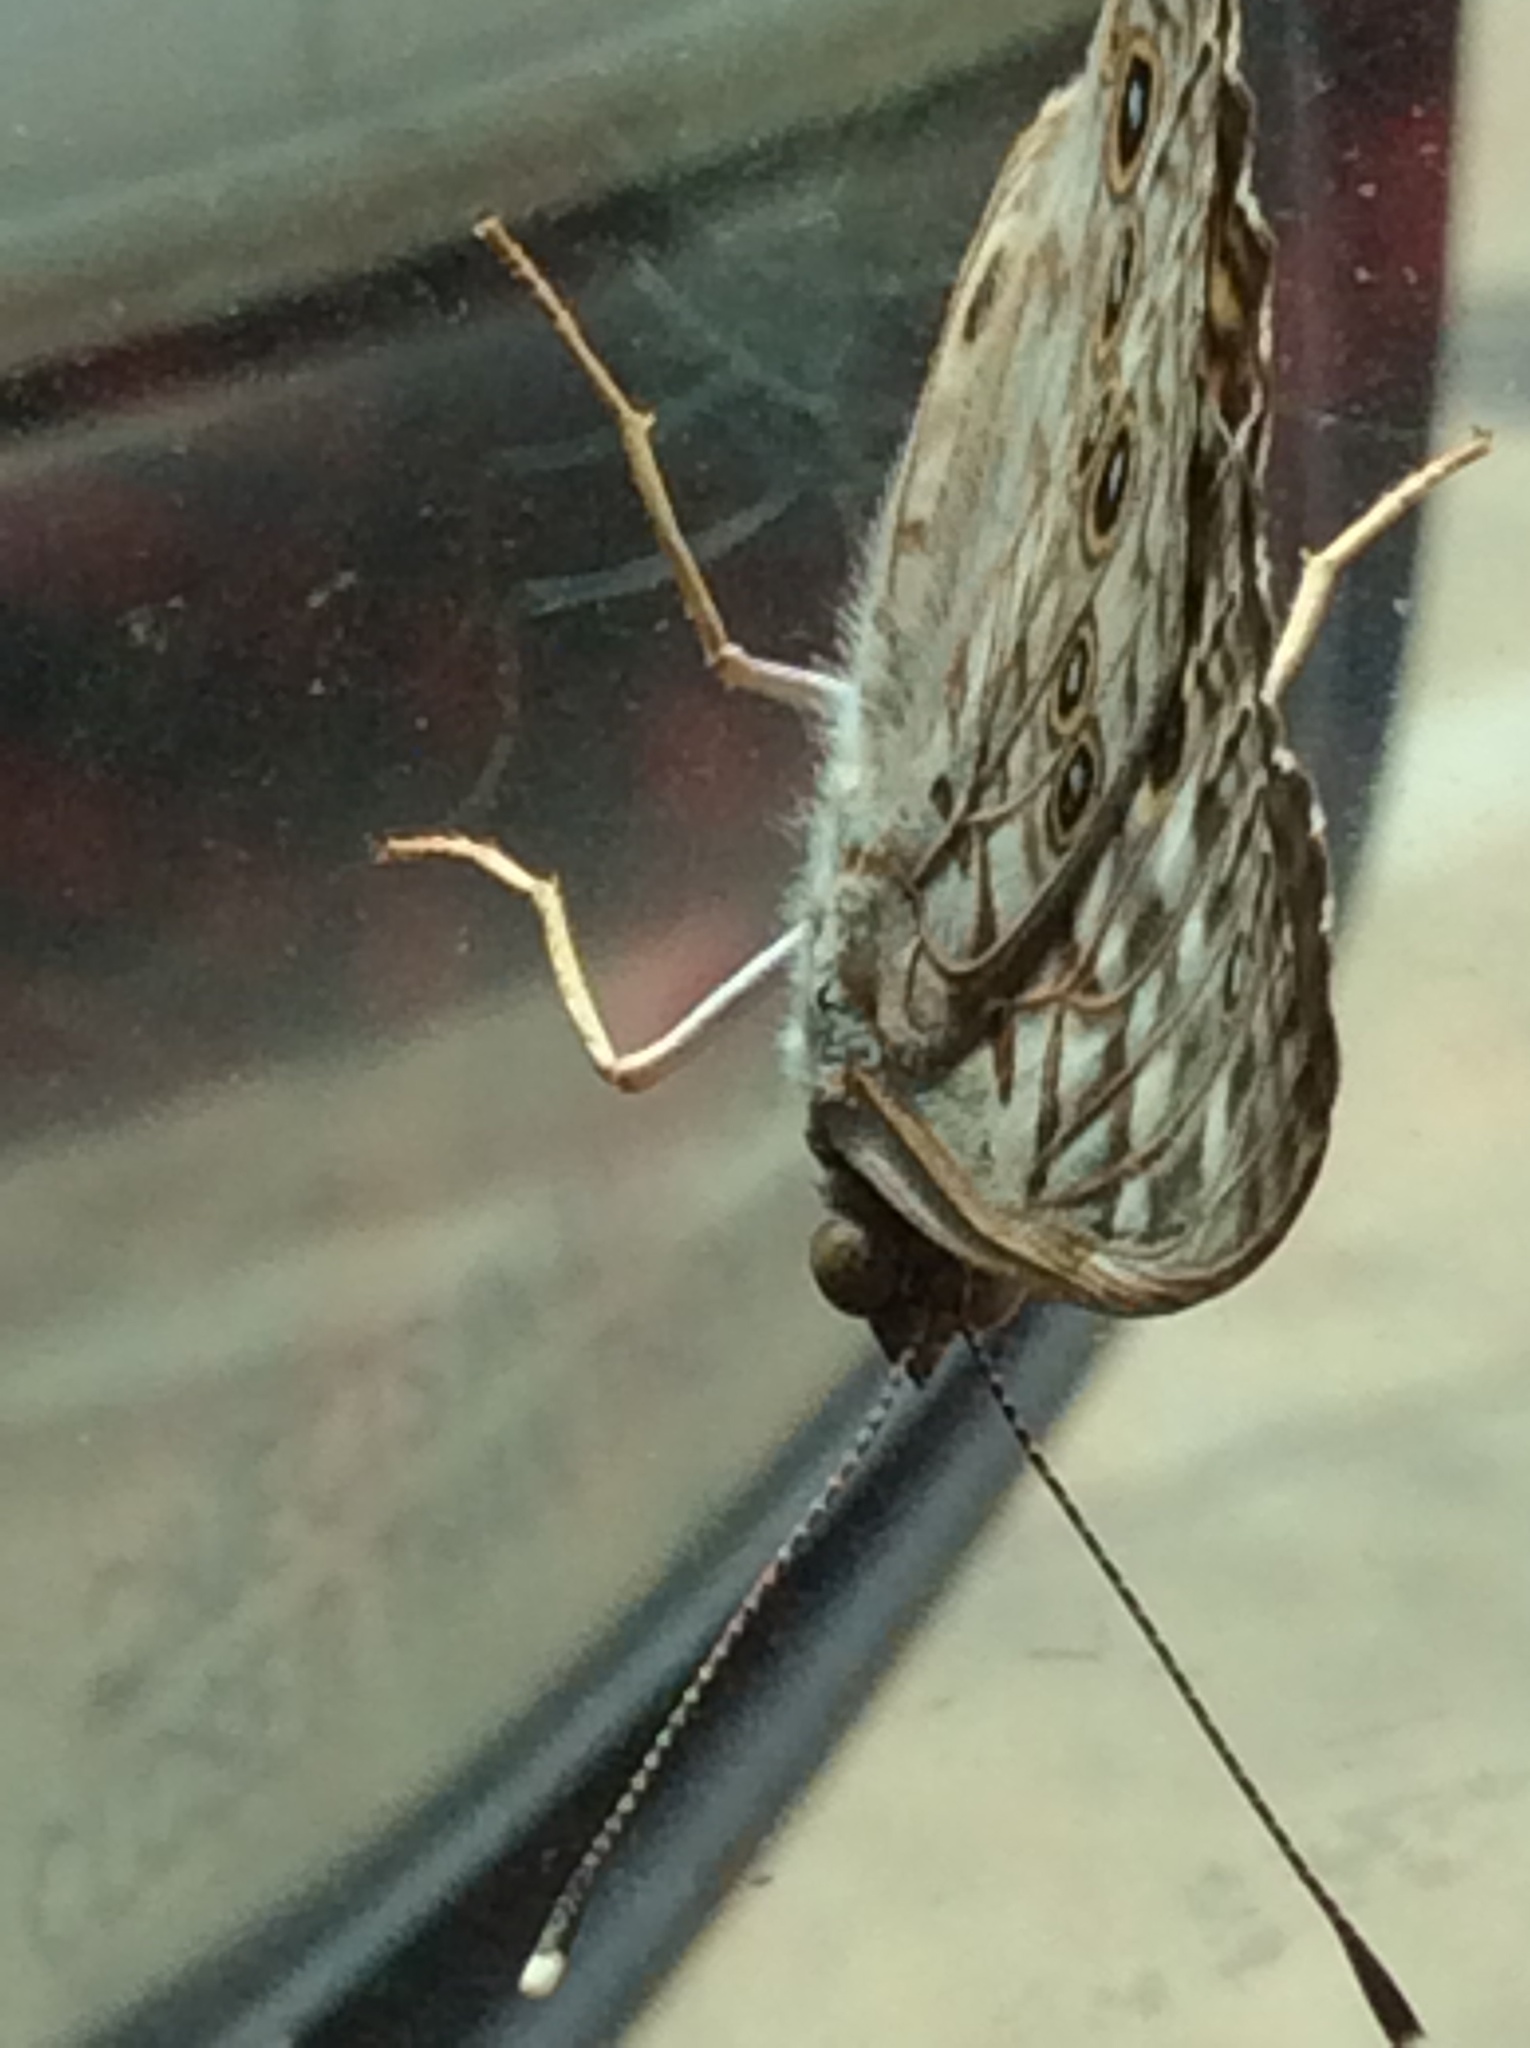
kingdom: Animalia
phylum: Arthropoda
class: Insecta
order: Lepidoptera
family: Nymphalidae
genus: Asterocampa
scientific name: Asterocampa celtis
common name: Hackberry emperor
